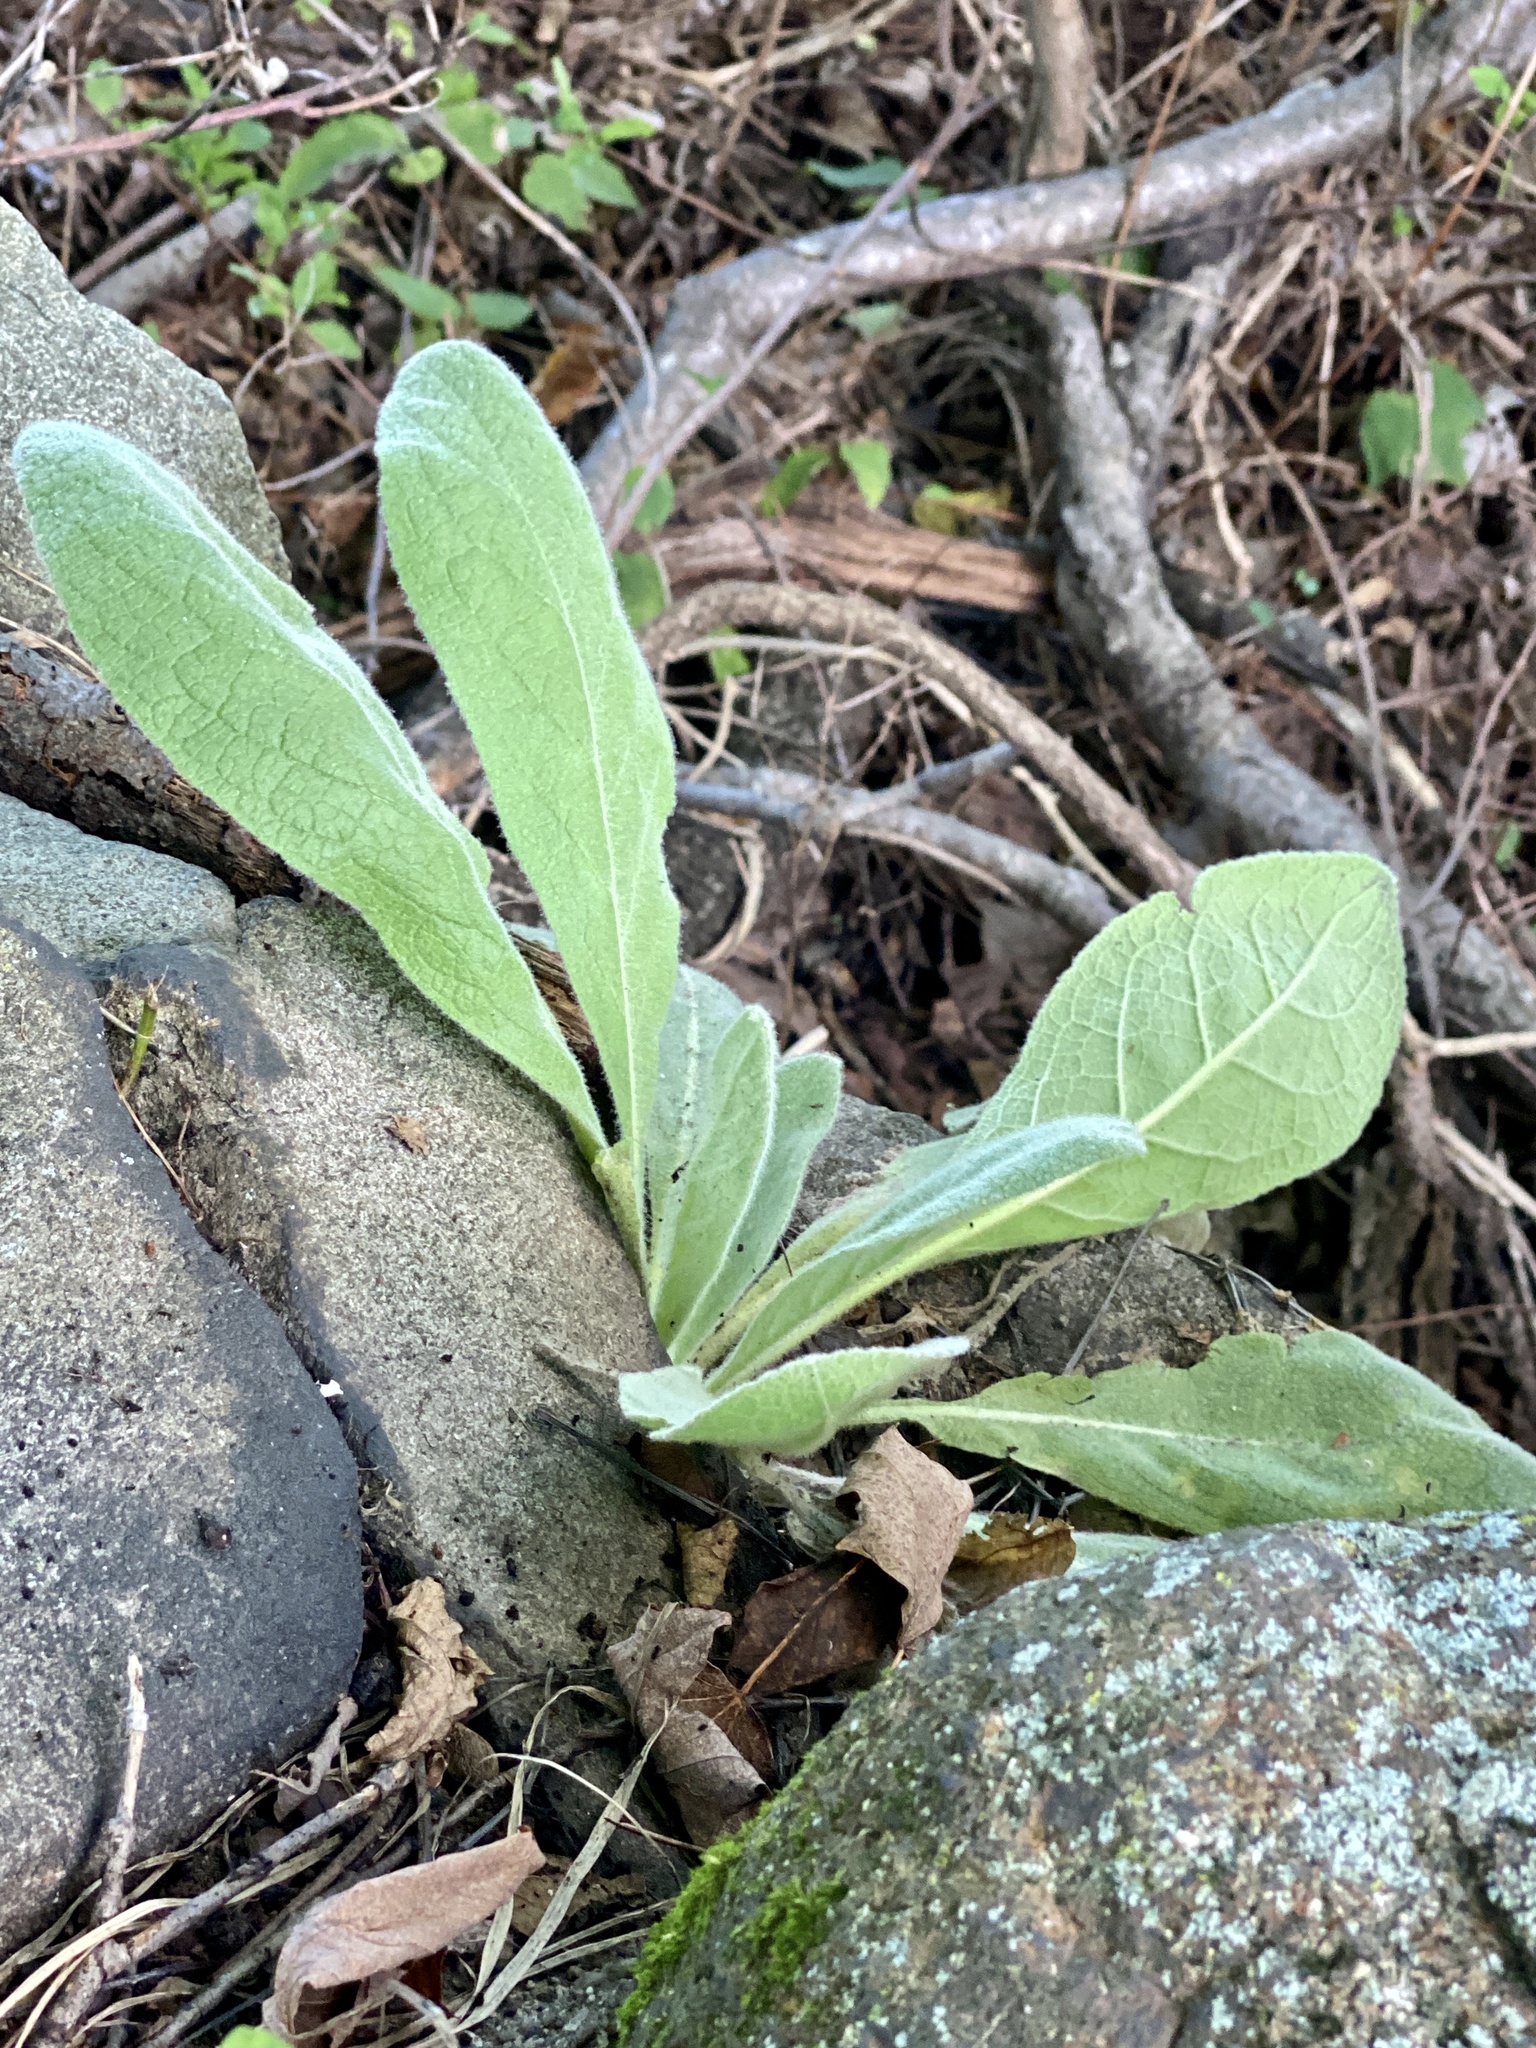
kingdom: Plantae
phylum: Tracheophyta
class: Magnoliopsida
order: Lamiales
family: Scrophulariaceae
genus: Verbascum
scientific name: Verbascum thapsus
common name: Common mullein
